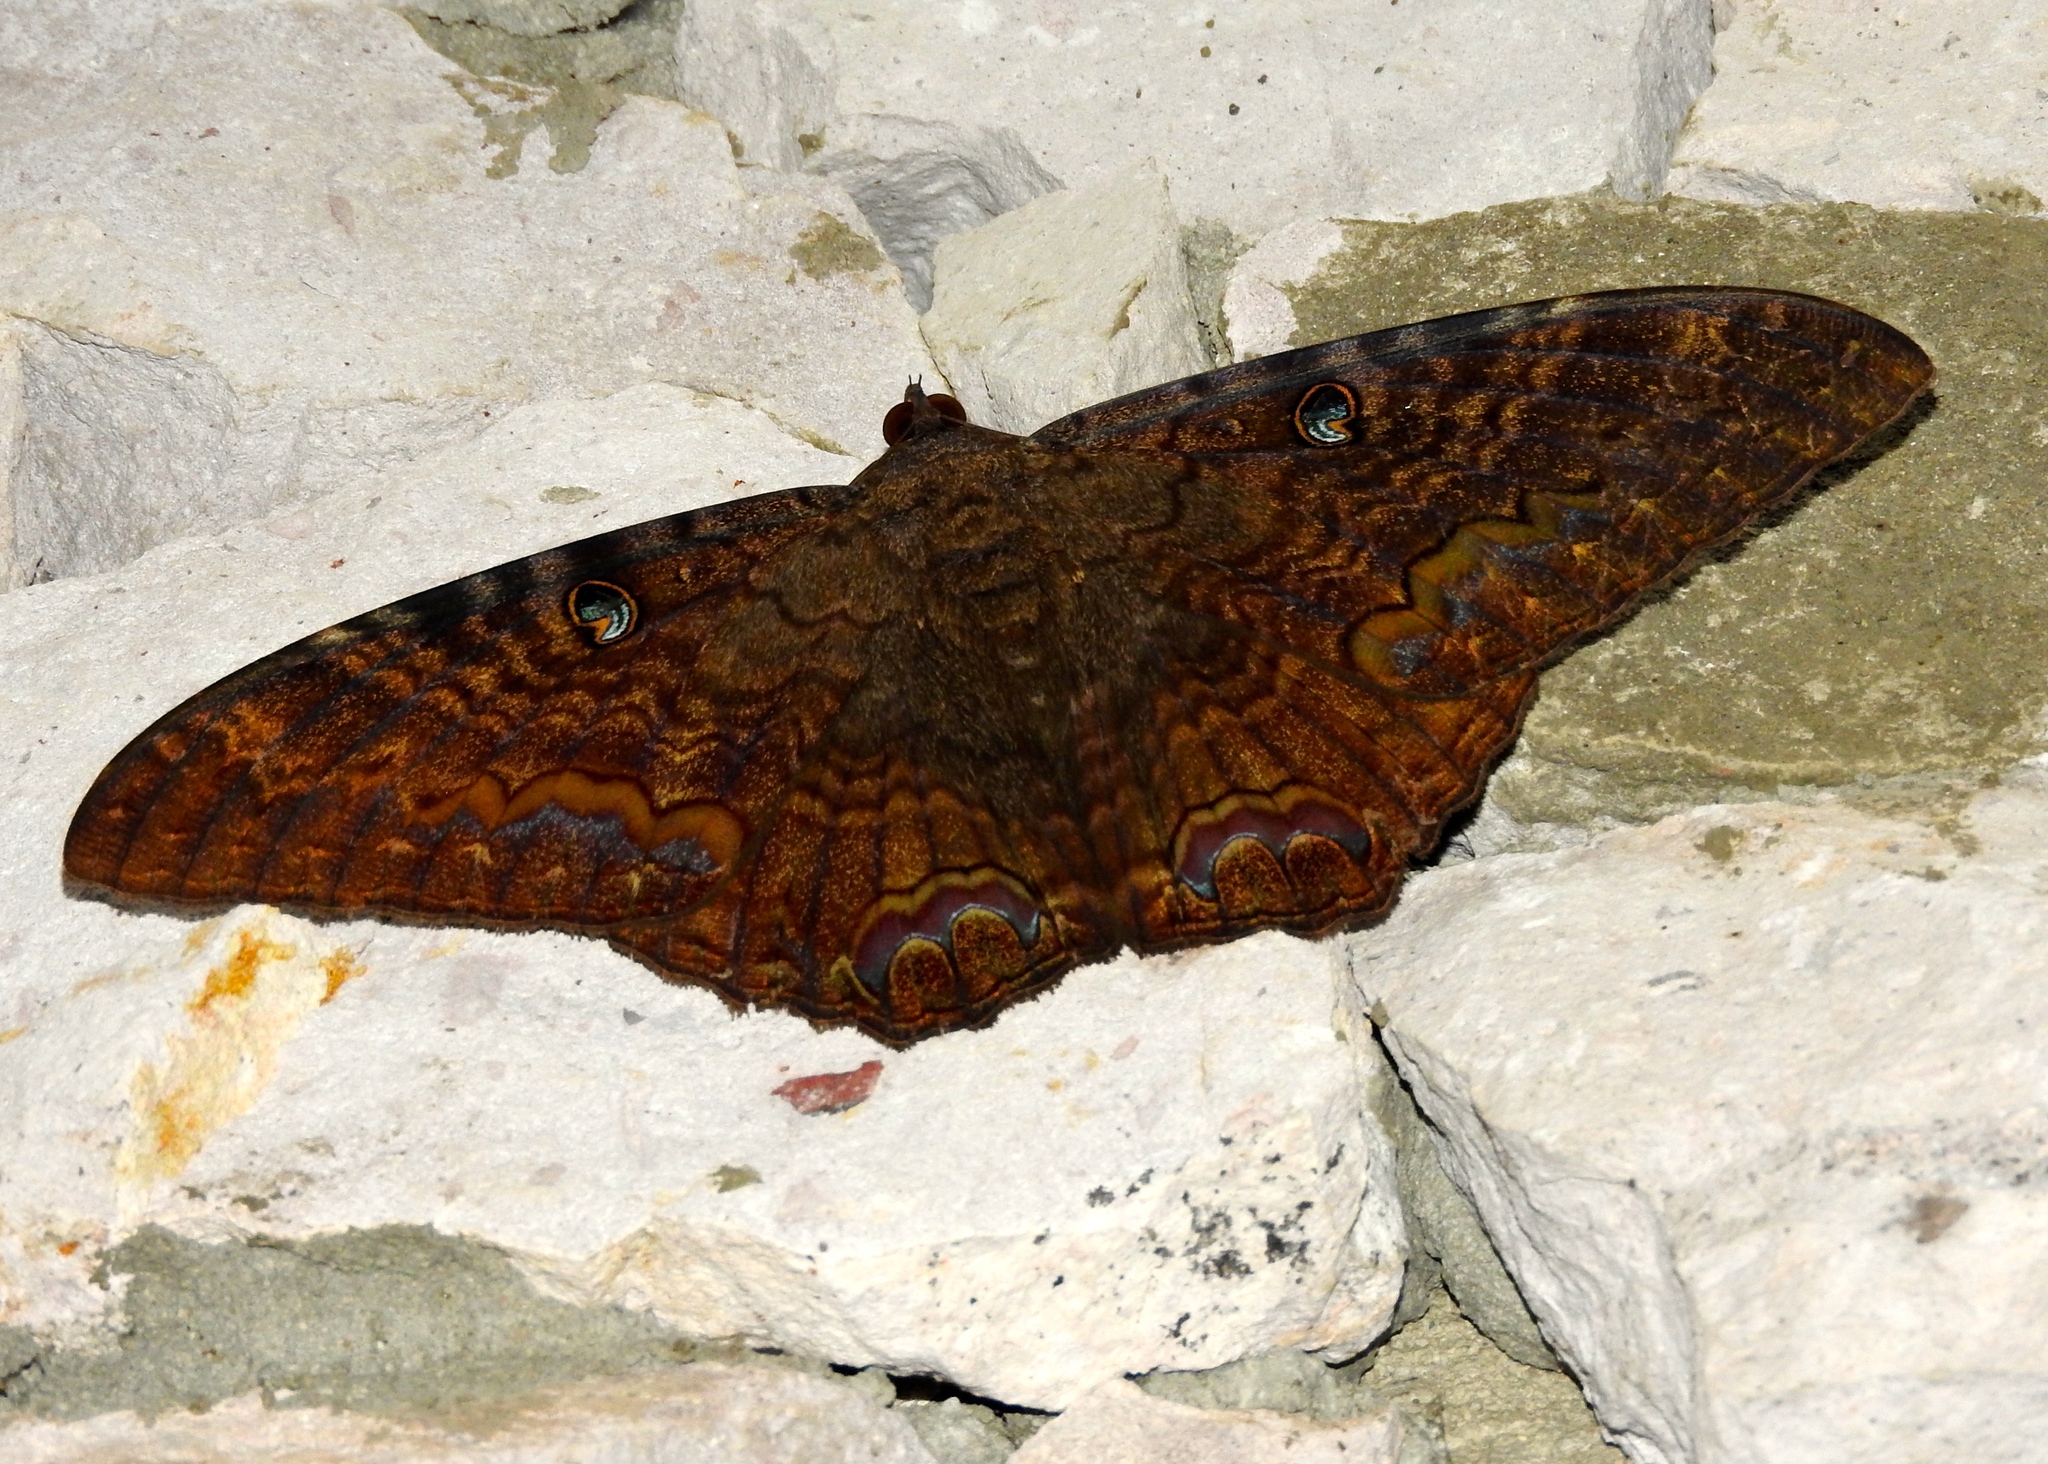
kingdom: Animalia
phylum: Arthropoda
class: Insecta
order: Lepidoptera
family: Erebidae
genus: Ascalapha
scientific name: Ascalapha odorata
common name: Black witch
